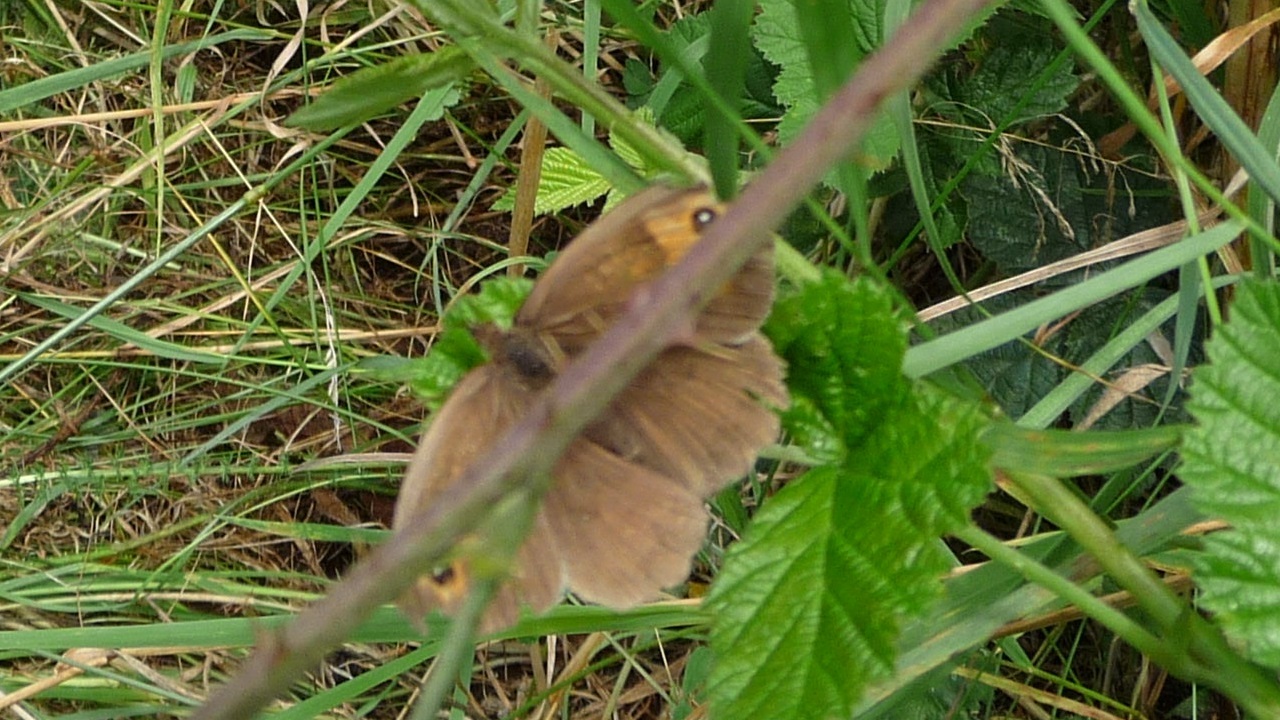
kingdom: Animalia
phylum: Arthropoda
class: Insecta
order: Lepidoptera
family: Nymphalidae
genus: Maniola
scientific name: Maniola jurtina
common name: Meadow brown
